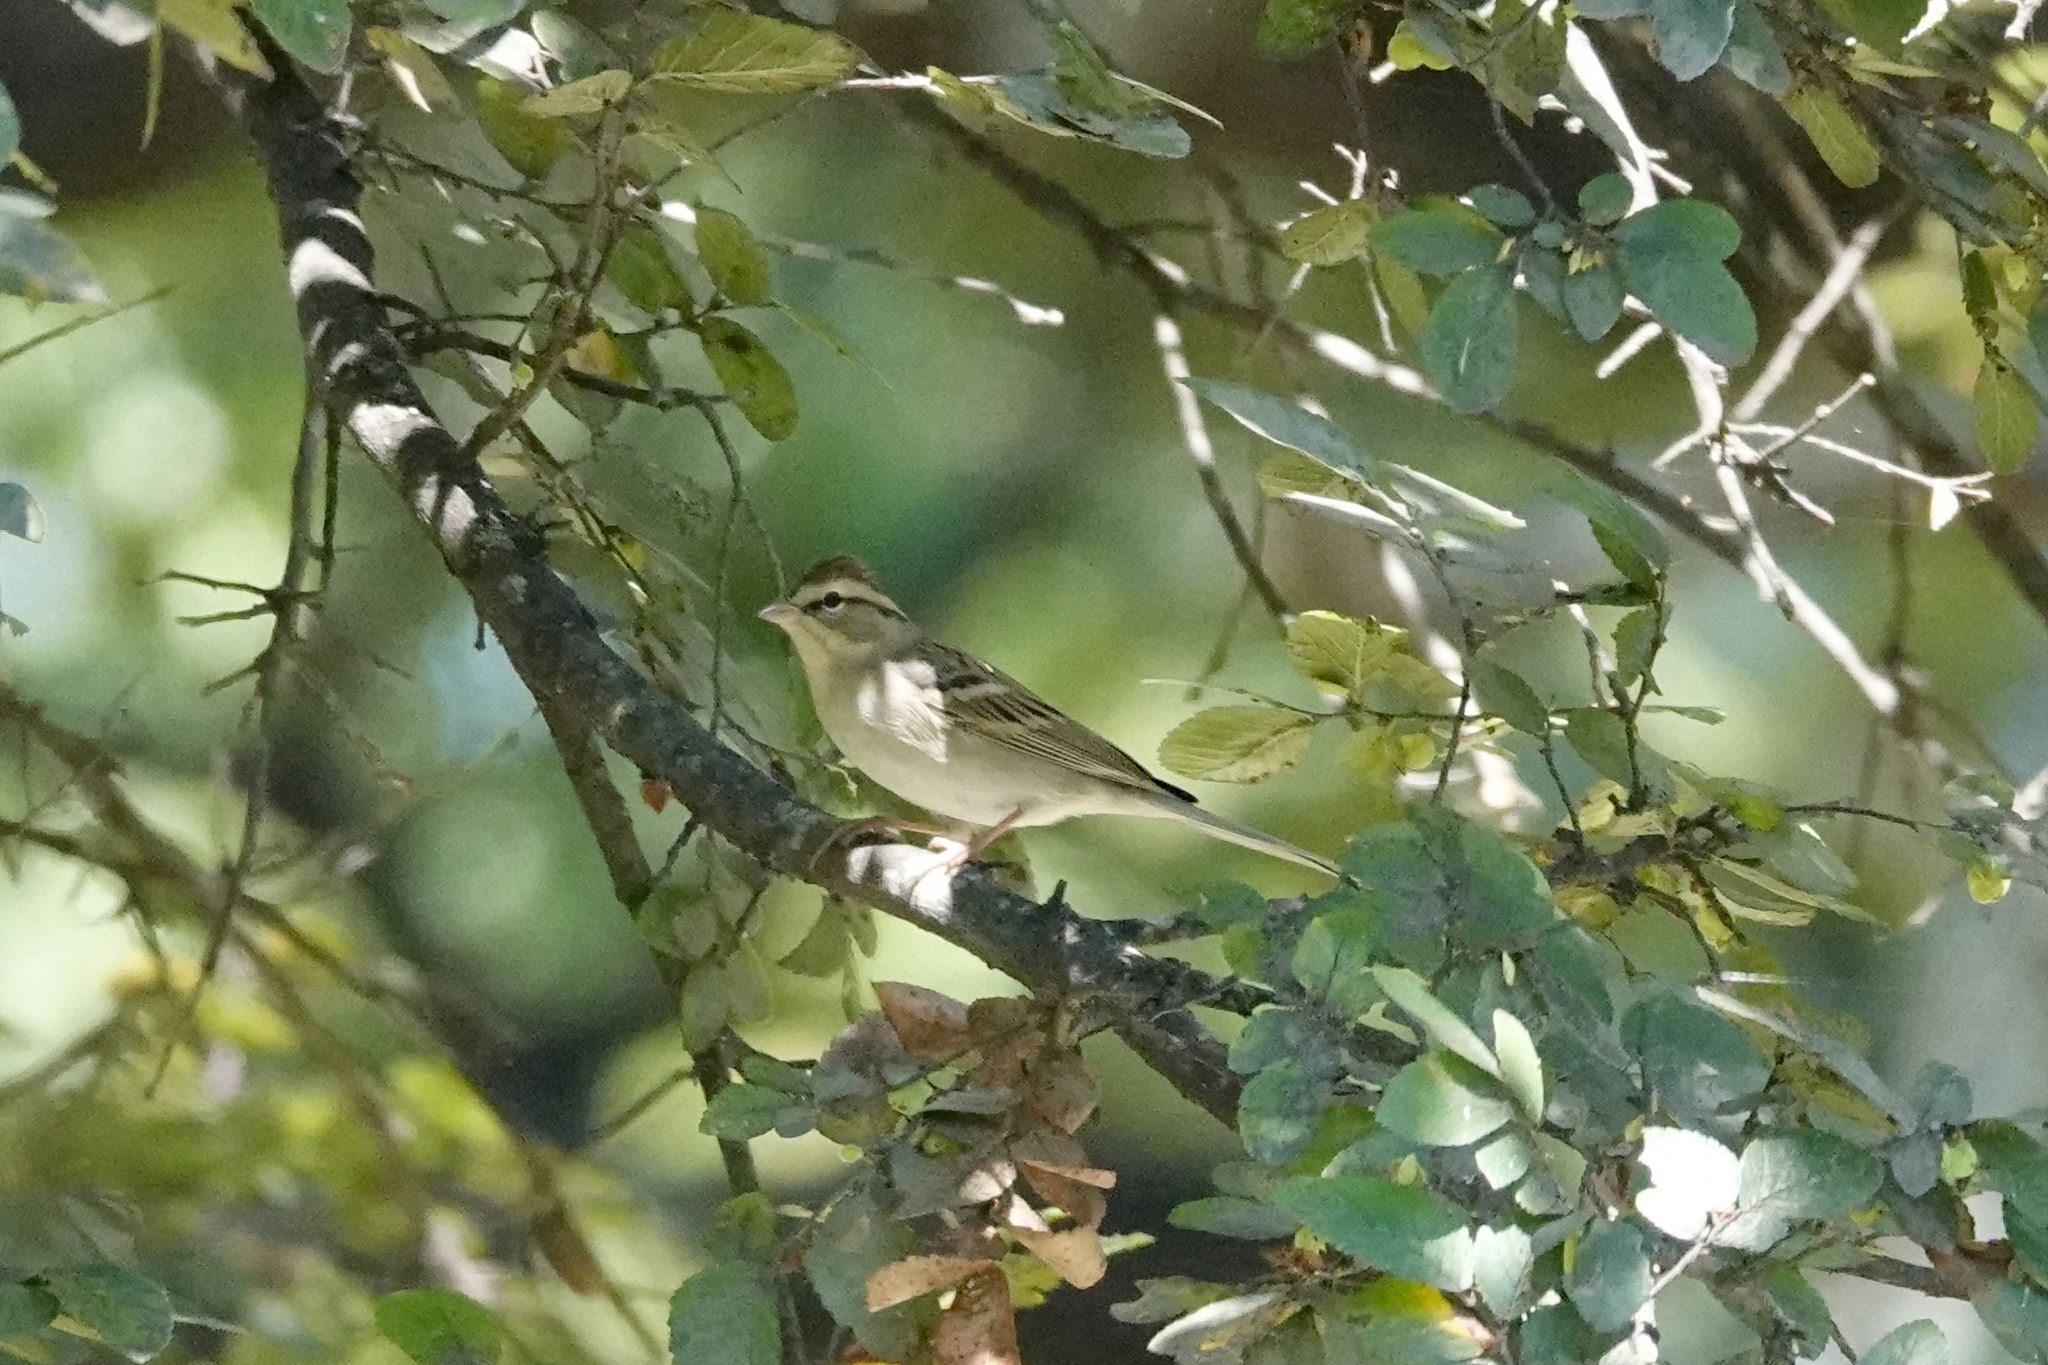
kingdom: Animalia
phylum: Chordata
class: Aves
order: Passeriformes
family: Passerellidae
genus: Spizella
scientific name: Spizella passerina
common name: Chipping sparrow
